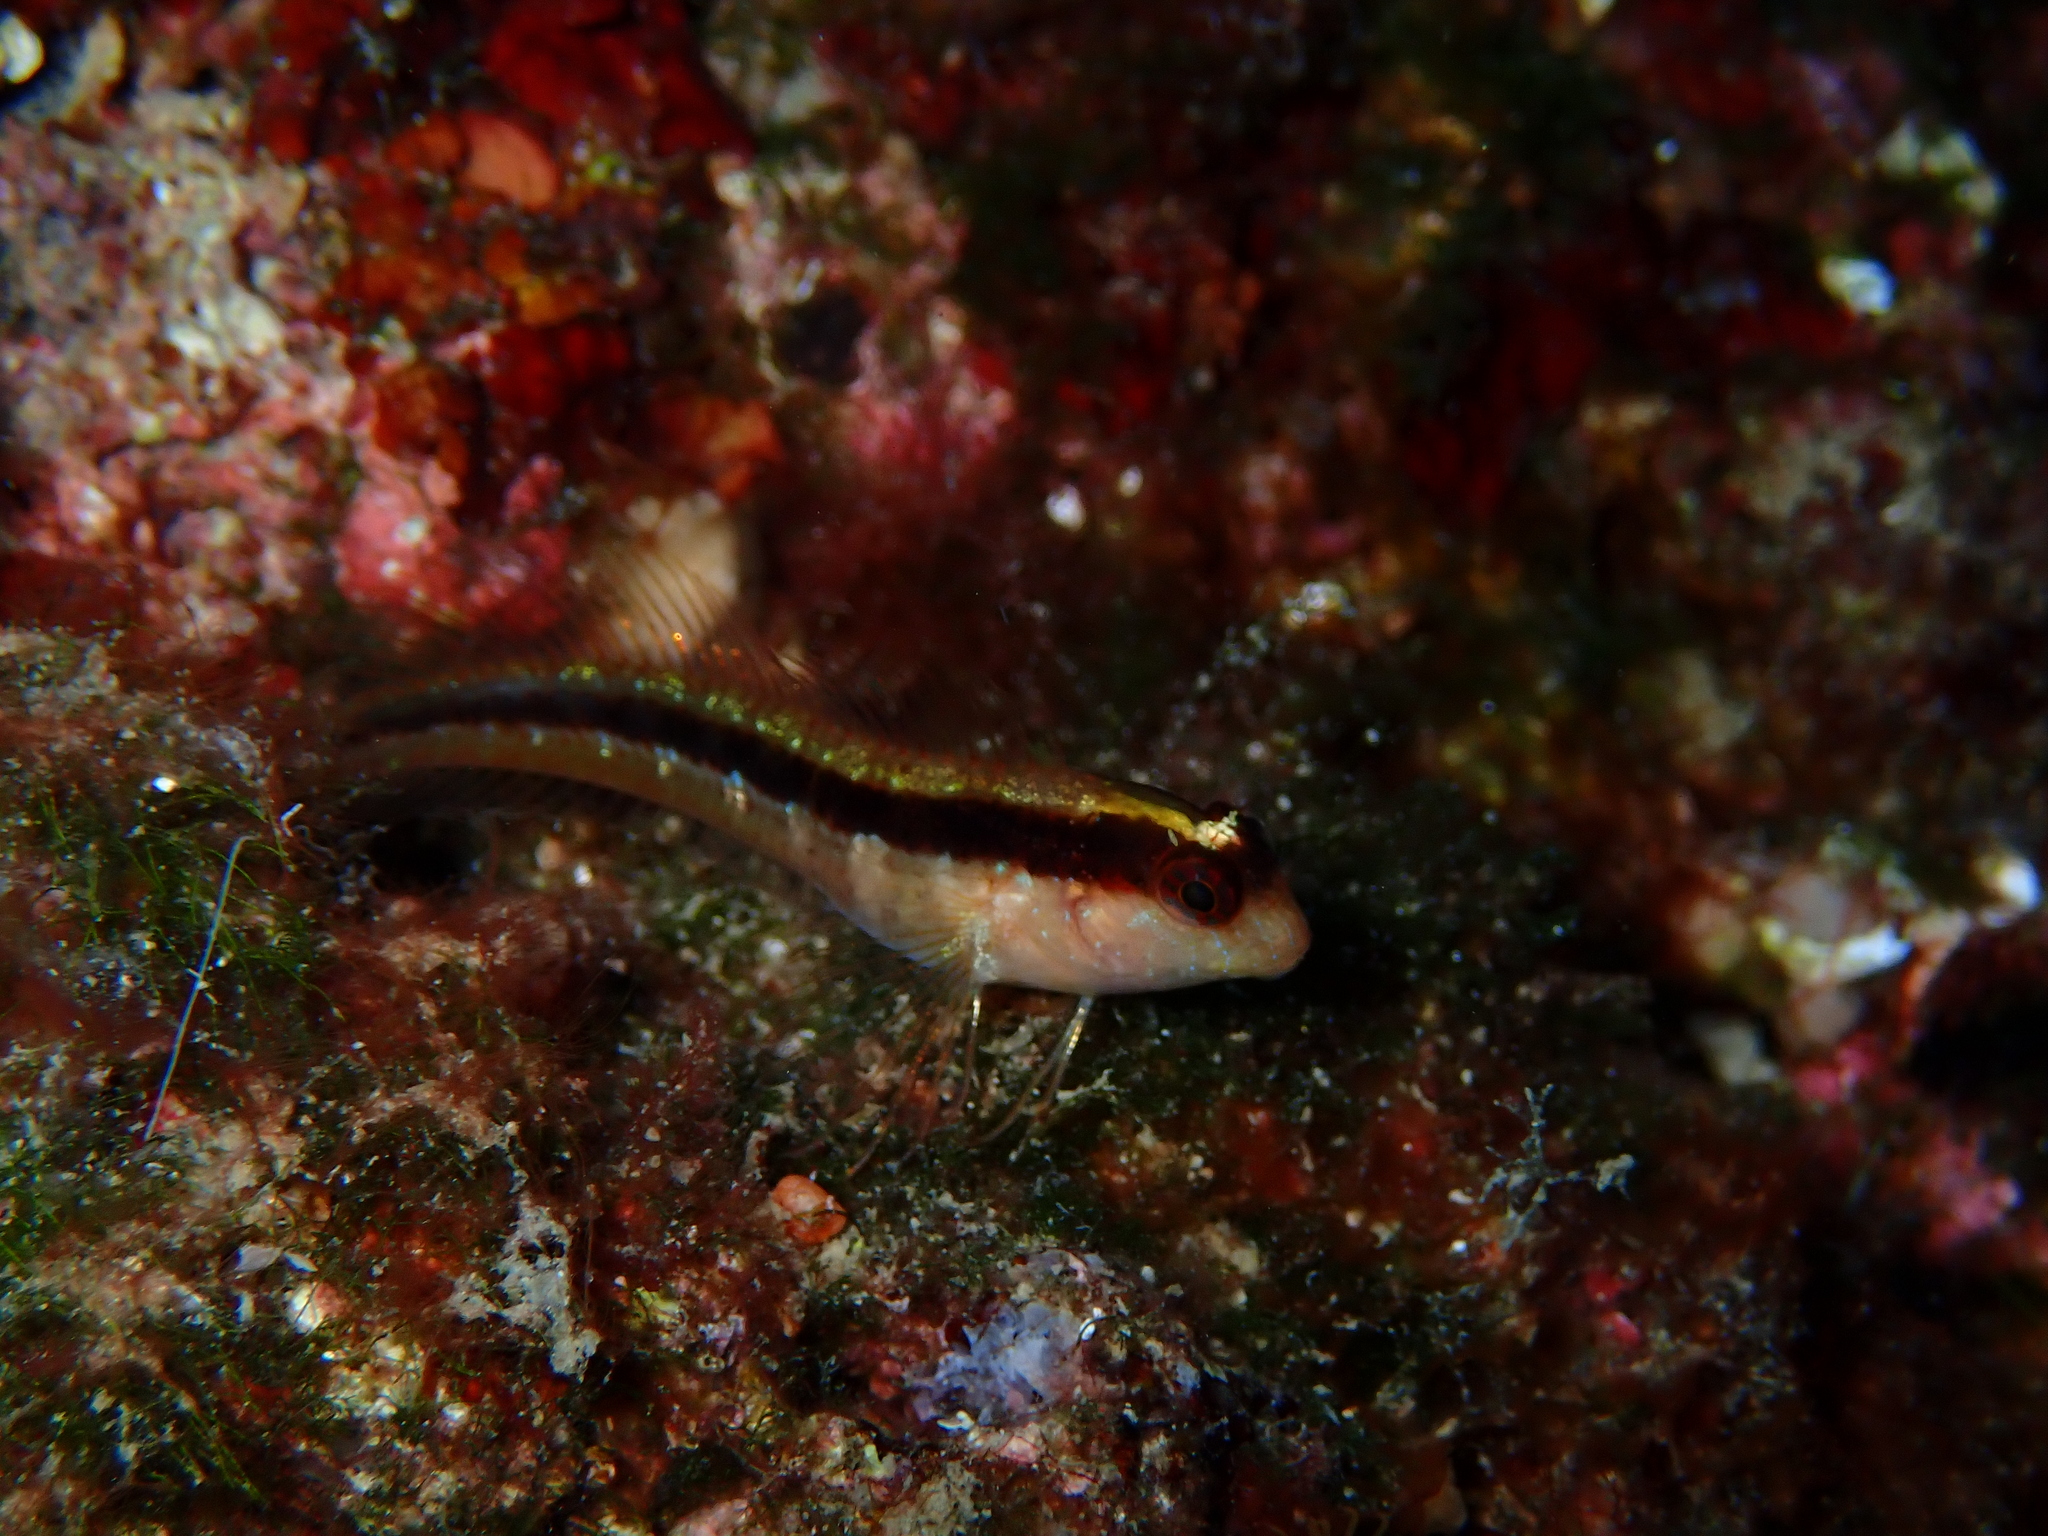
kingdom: Animalia
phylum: Chordata
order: Perciformes
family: Blenniidae
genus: Parablennius
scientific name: Parablennius rouxi
